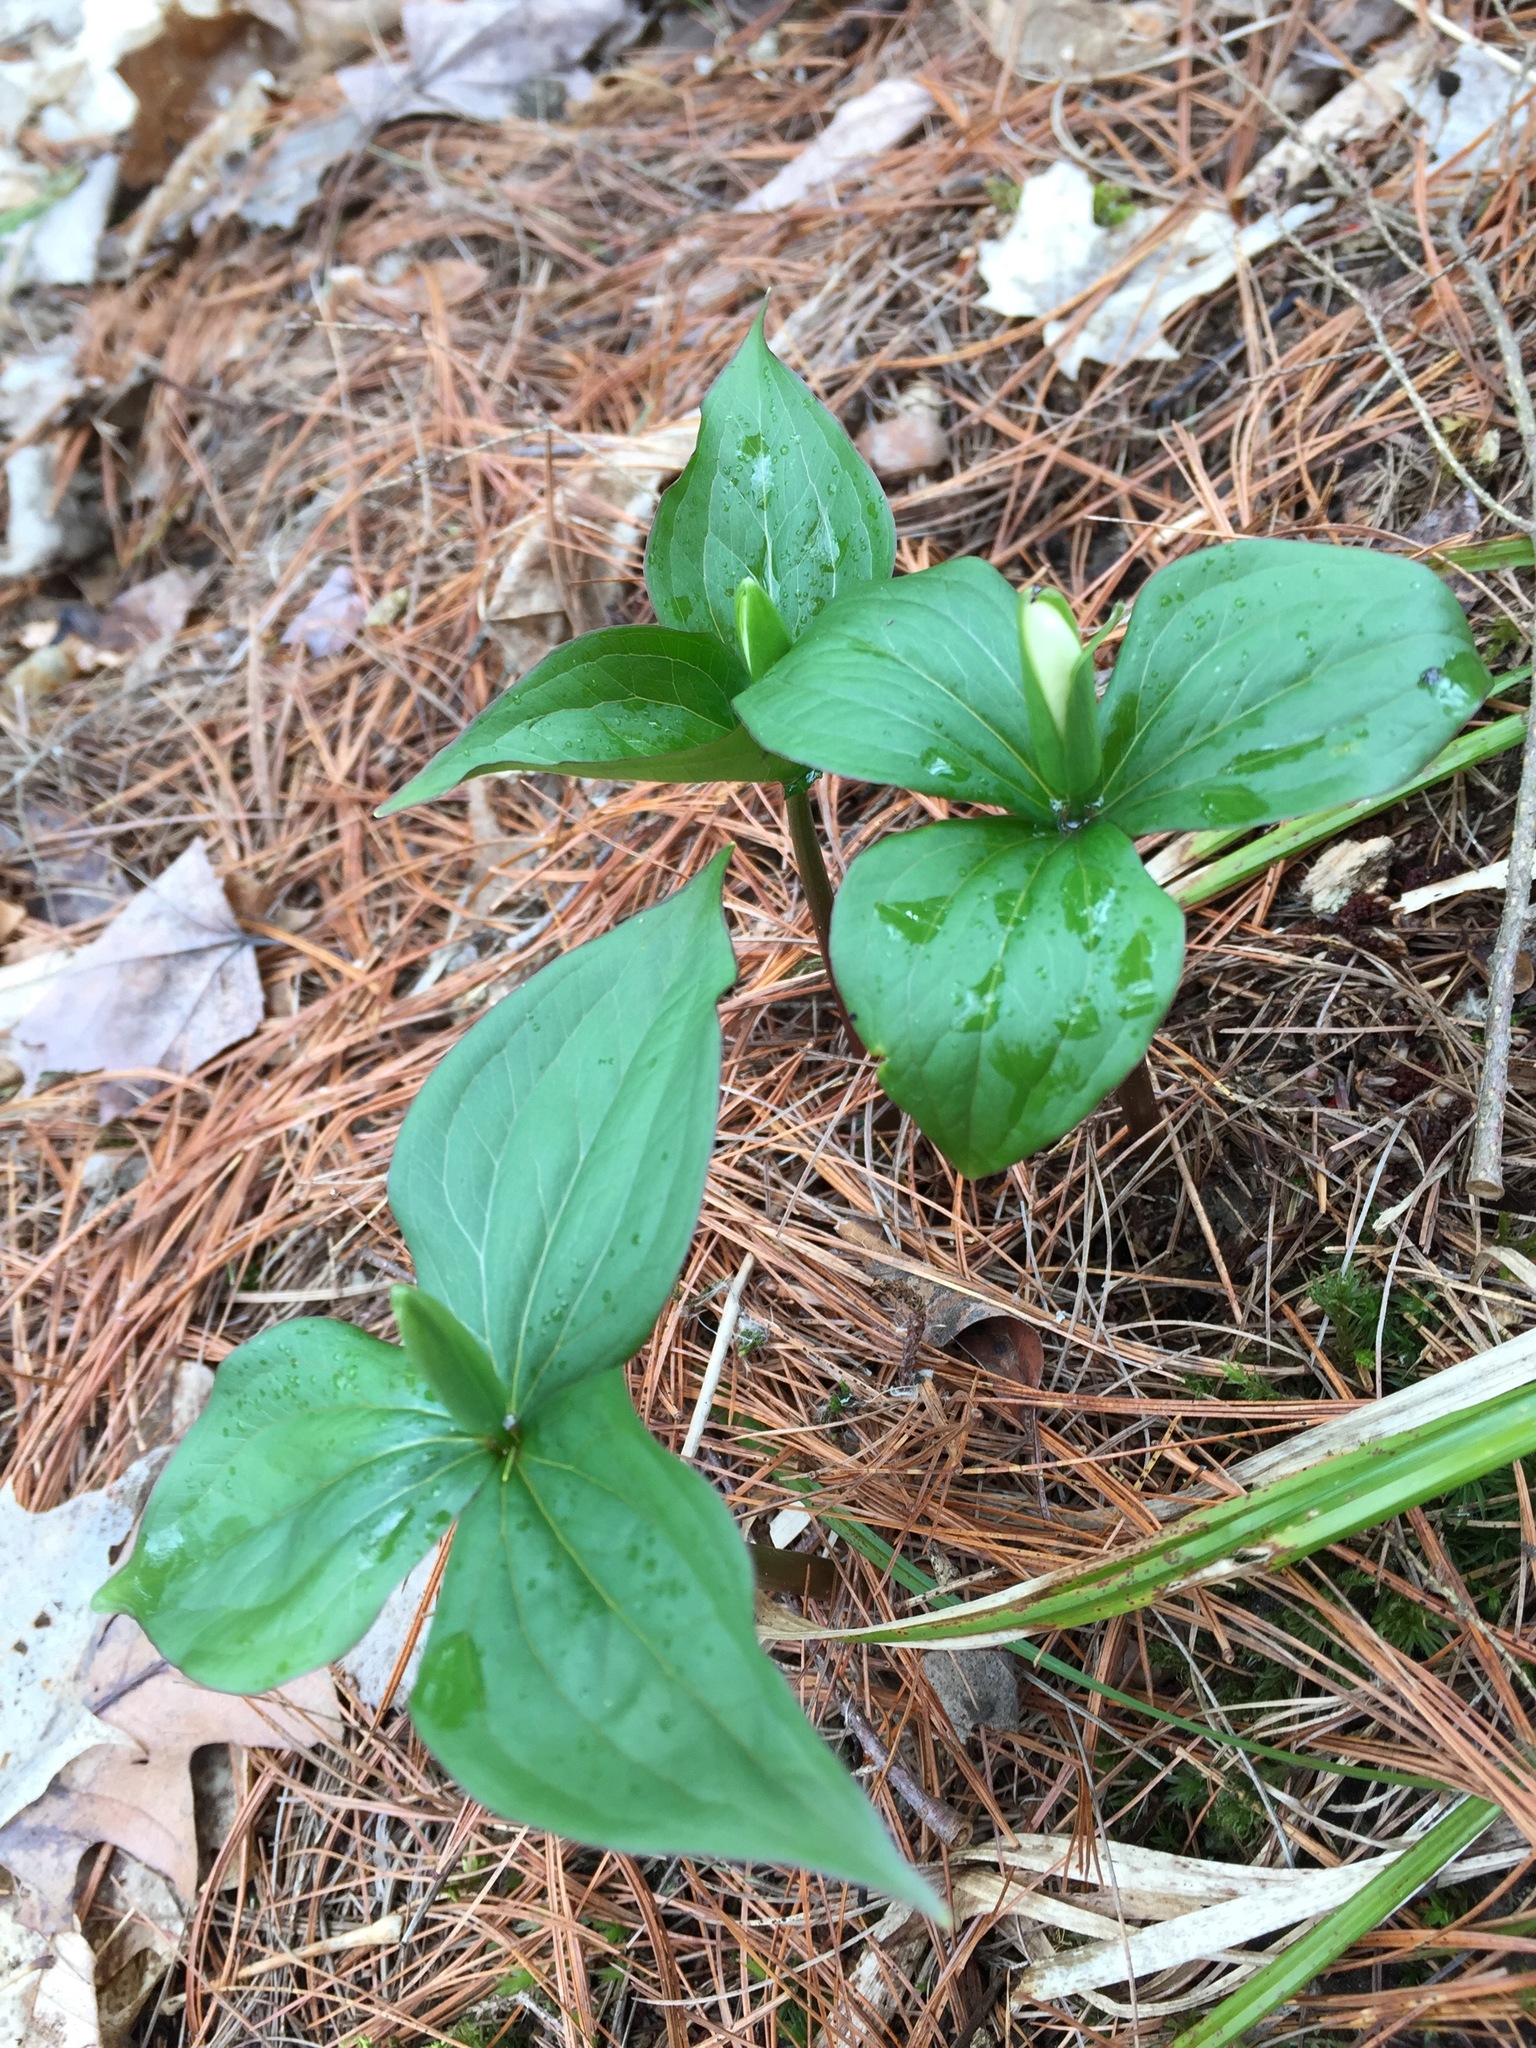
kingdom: Plantae
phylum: Tracheophyta
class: Liliopsida
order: Liliales
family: Melanthiaceae
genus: Trillium
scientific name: Trillium grandiflorum
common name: Great white trillium
